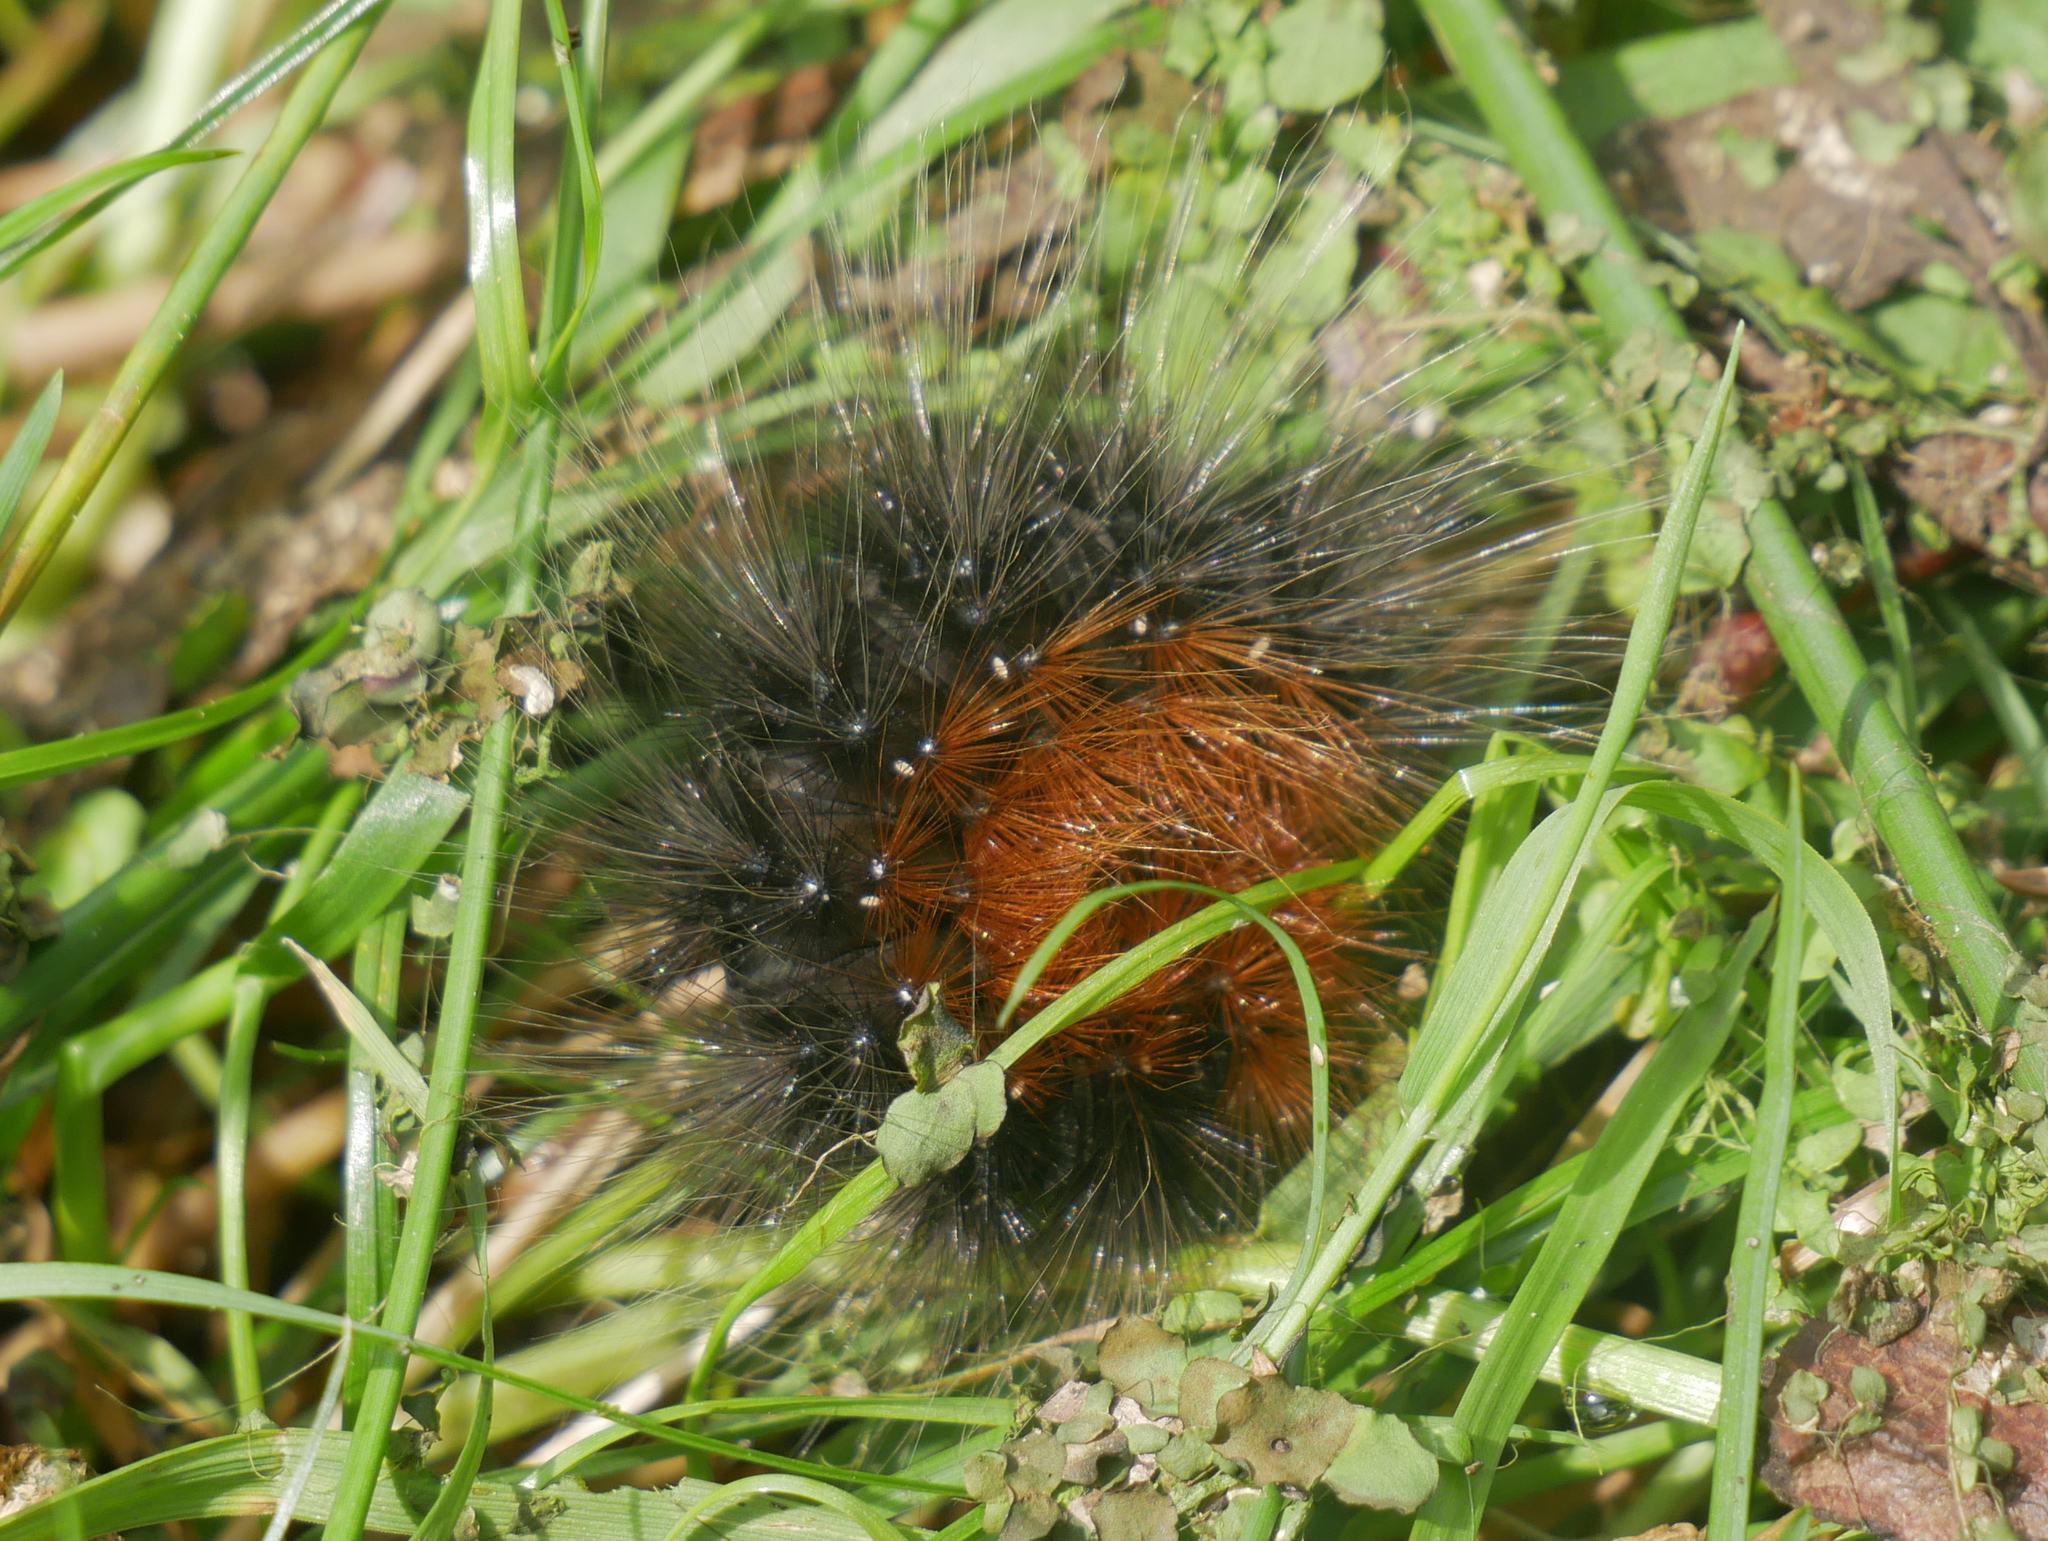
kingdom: Animalia
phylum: Arthropoda
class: Insecta
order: Lepidoptera
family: Erebidae
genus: Arctia
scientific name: Arctia caja
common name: Garden tiger
